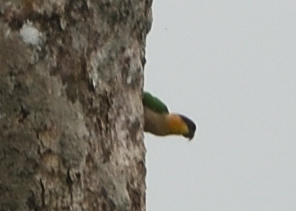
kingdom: Animalia
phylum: Chordata
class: Aves
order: Psittaciformes
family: Psittacidae
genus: Pionites
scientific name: Pionites melanocephalus
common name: Black-headed parrot
